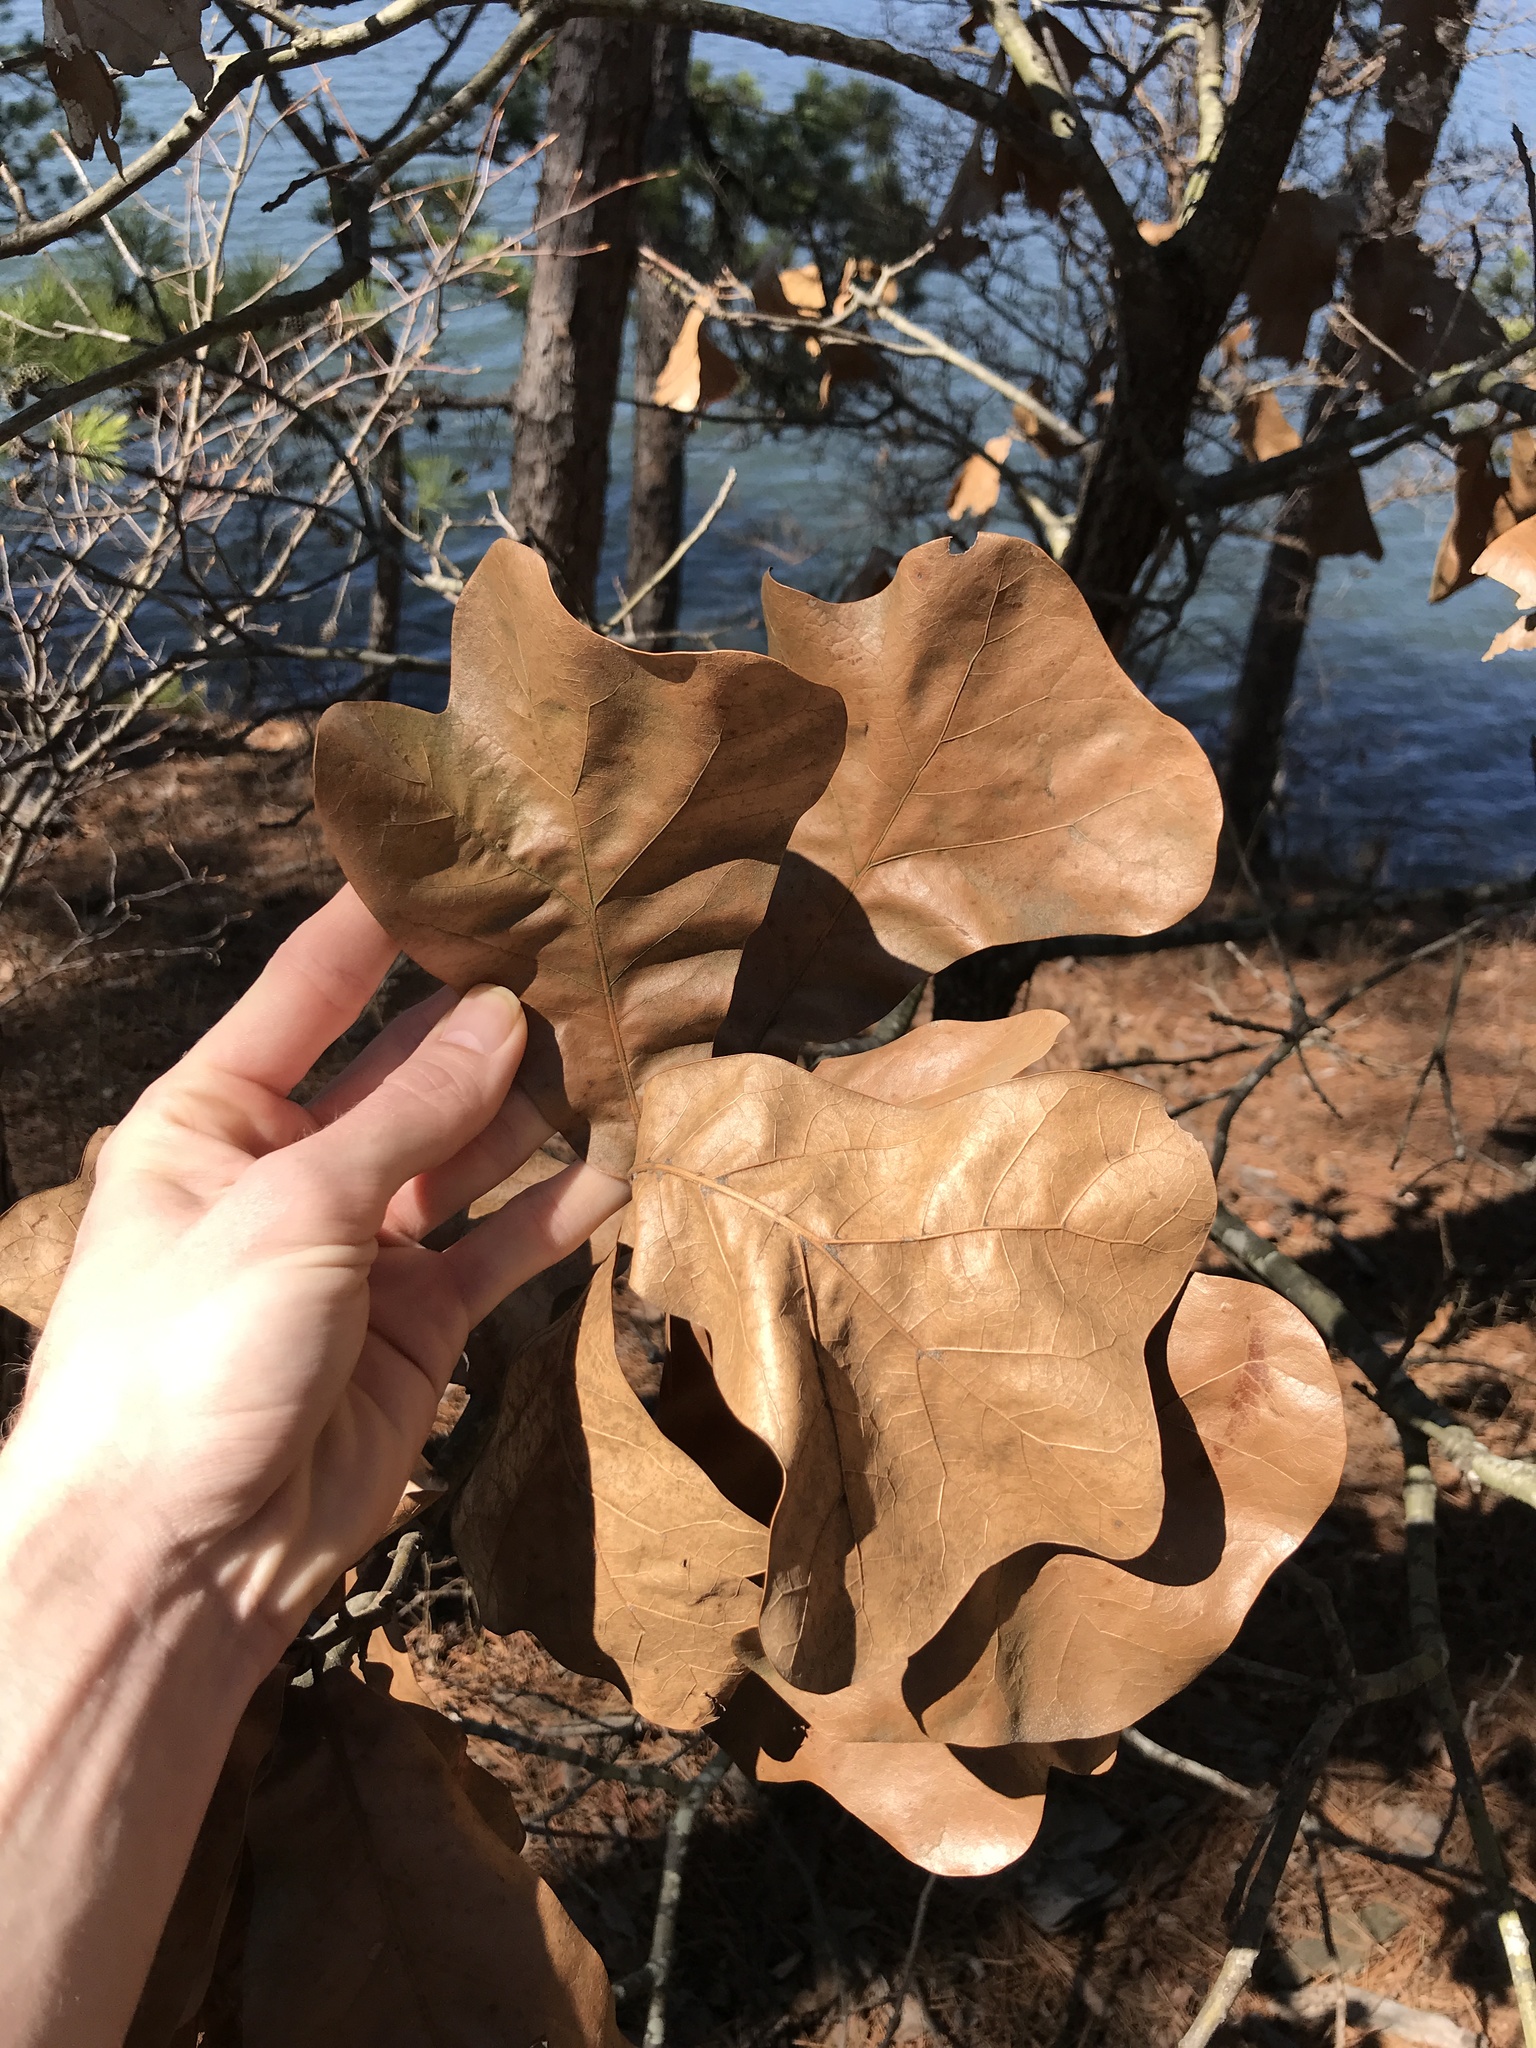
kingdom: Plantae
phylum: Tracheophyta
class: Magnoliopsida
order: Fagales
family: Fagaceae
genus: Quercus
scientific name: Quercus marilandica
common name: Blackjack oak
